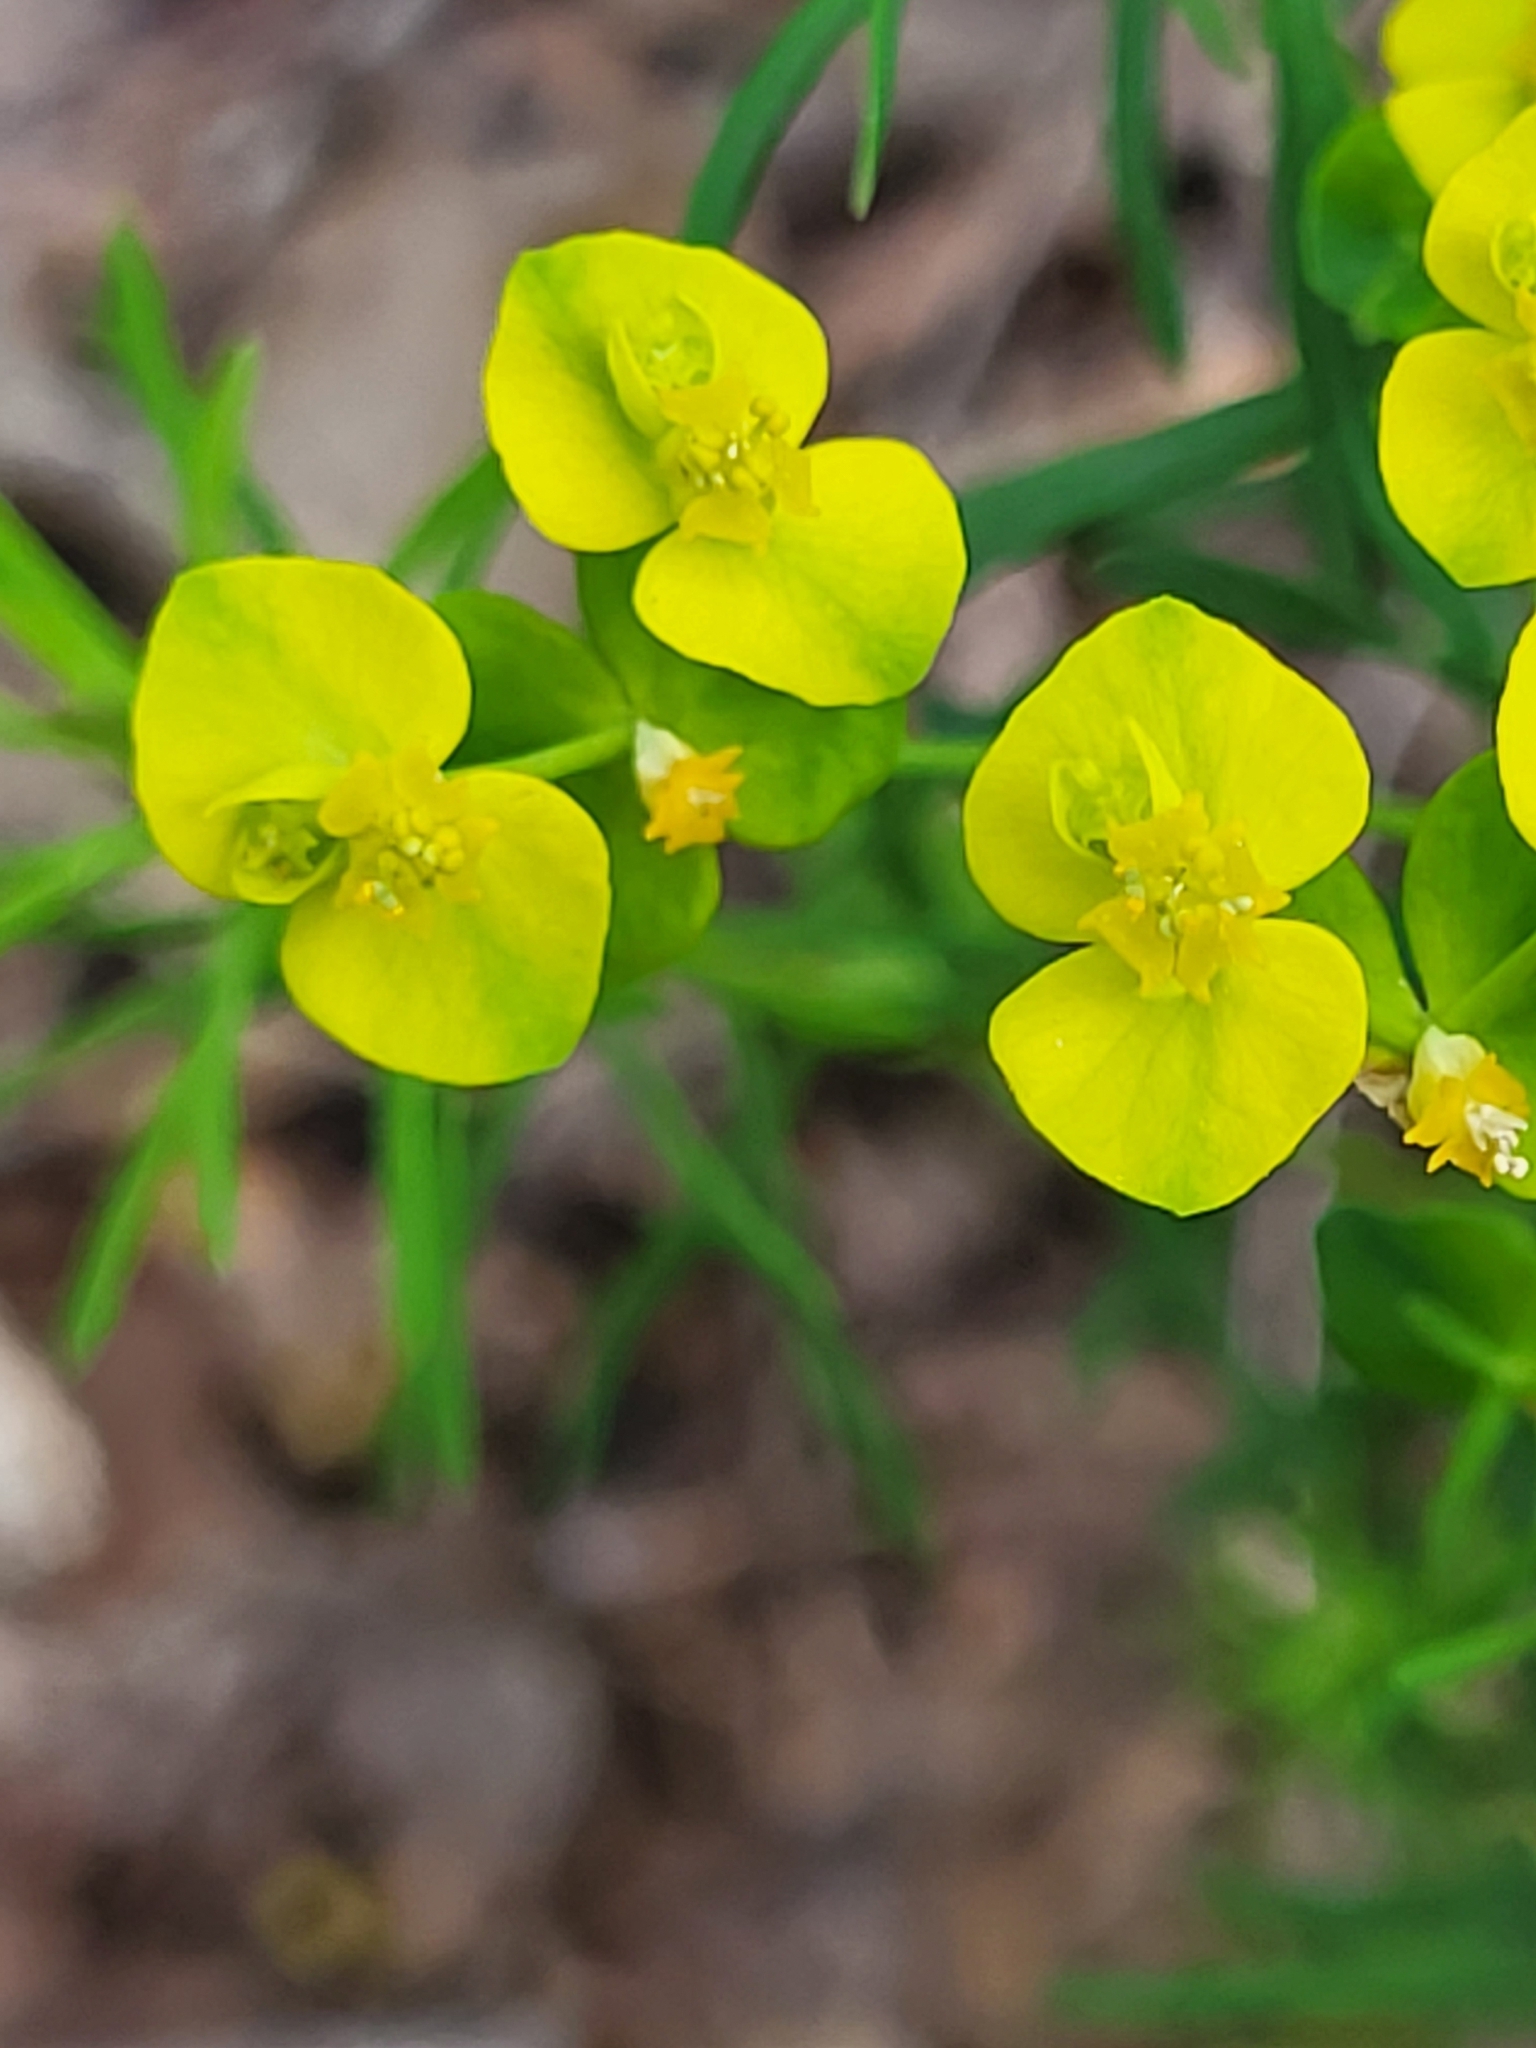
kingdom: Plantae
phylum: Tracheophyta
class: Magnoliopsida
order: Malpighiales
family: Euphorbiaceae
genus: Euphorbia
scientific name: Euphorbia cyparissias
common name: Cypress spurge
